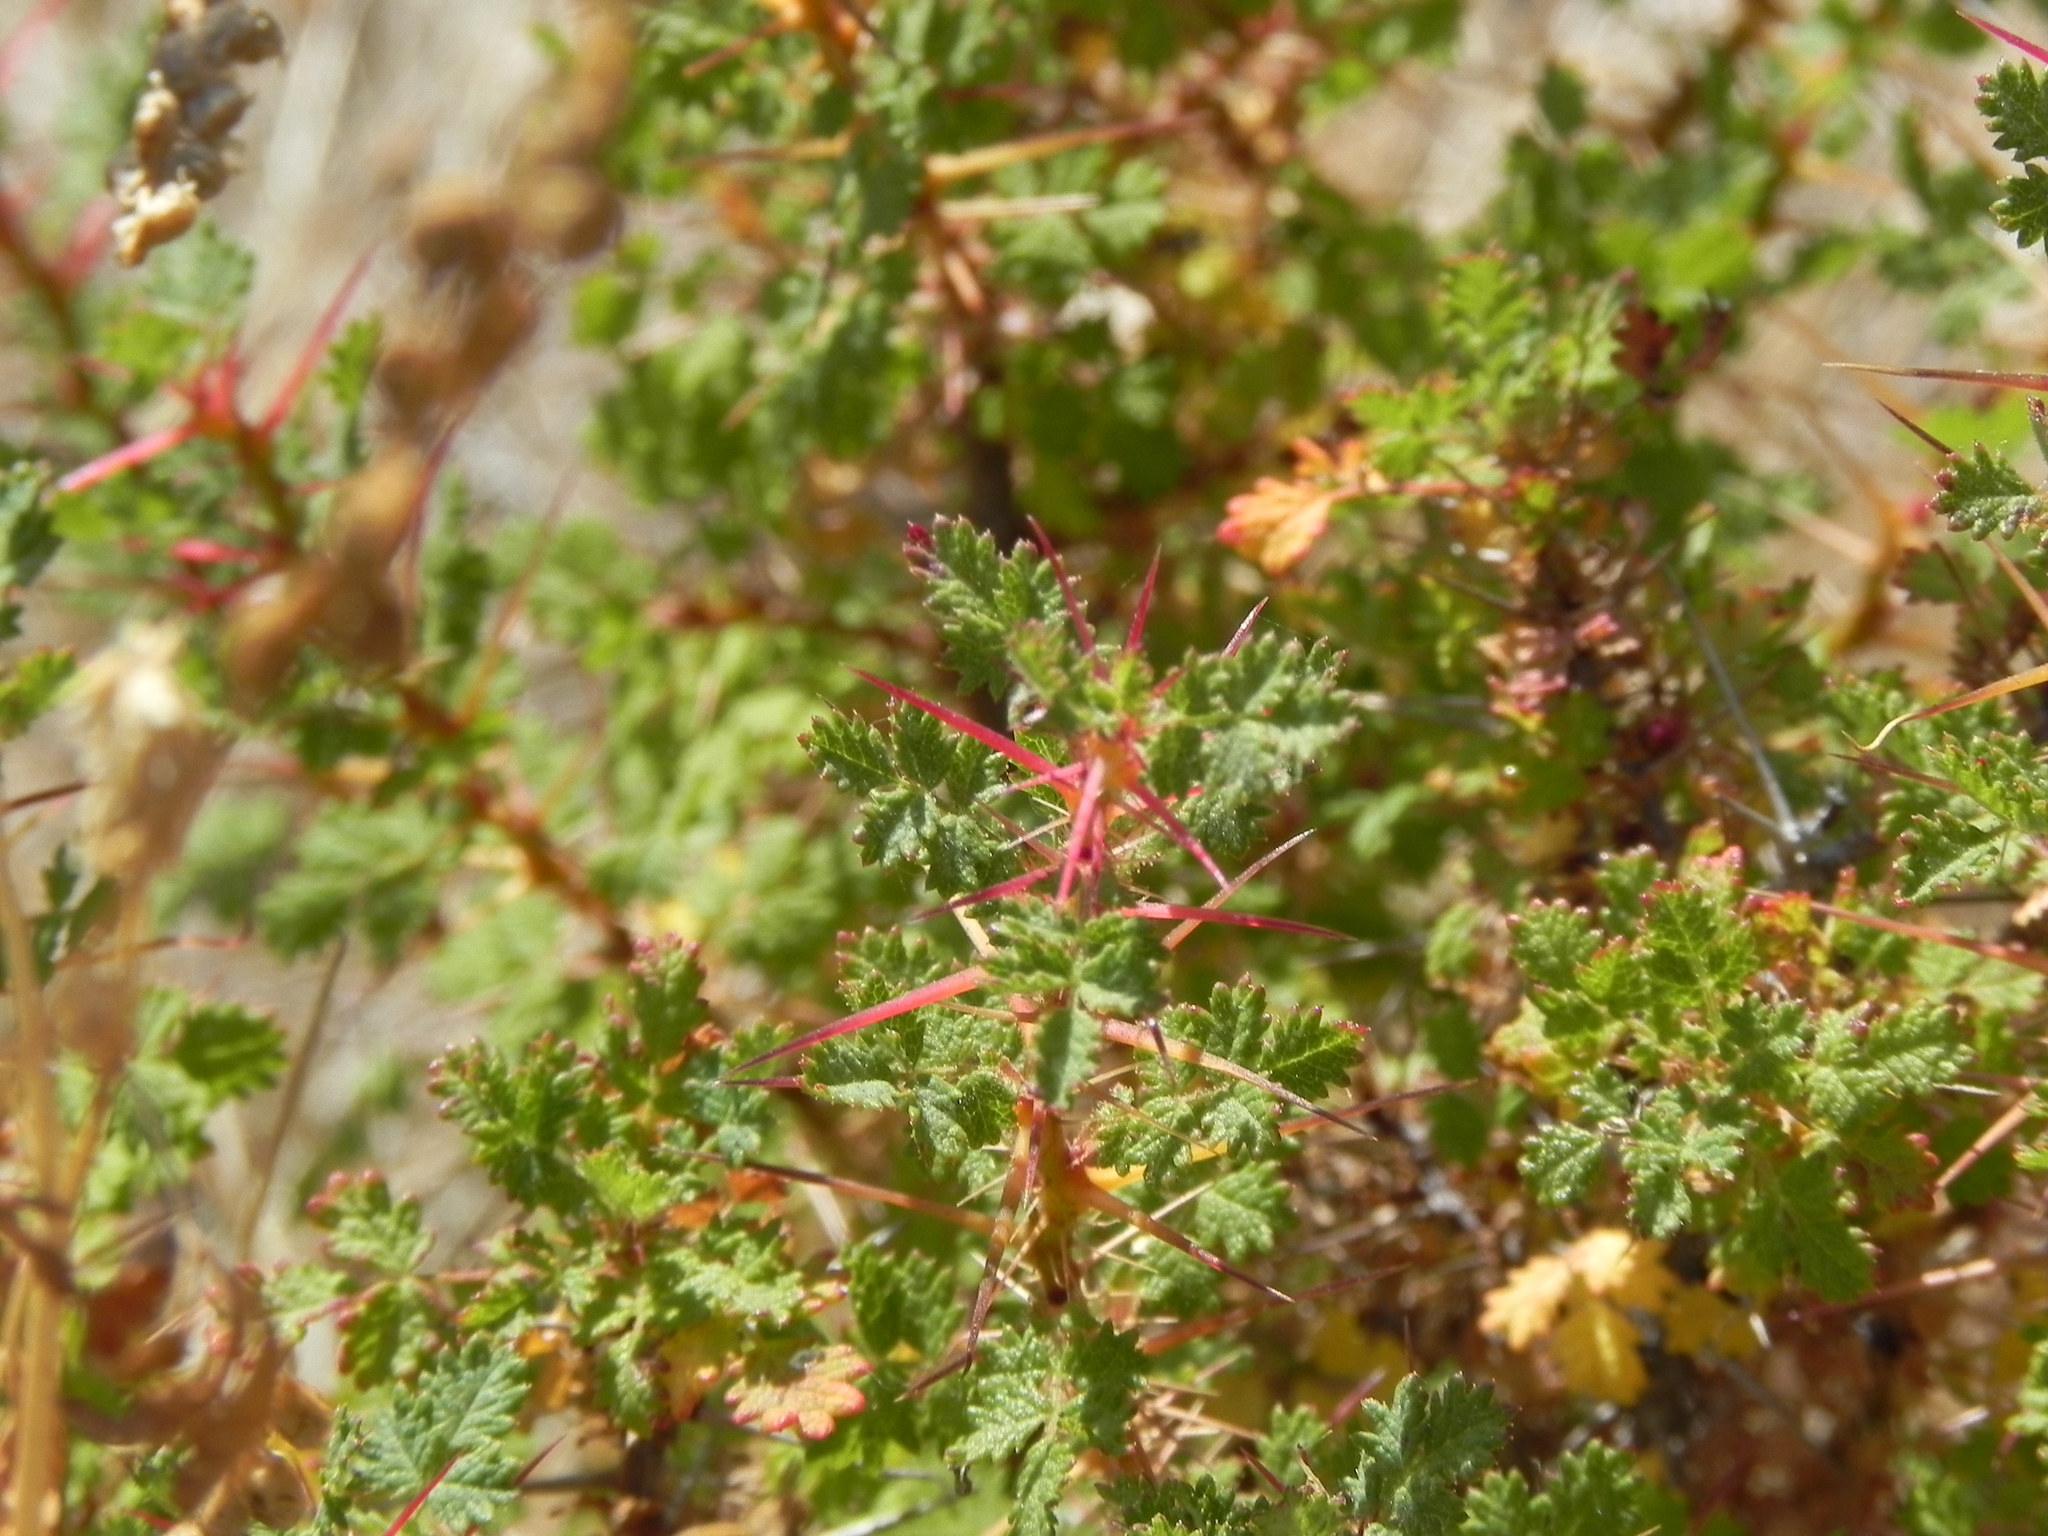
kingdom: Plantae
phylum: Tracheophyta
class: Magnoliopsida
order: Rosales
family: Rosaceae
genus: Rosa
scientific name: Rosa minutifolia
